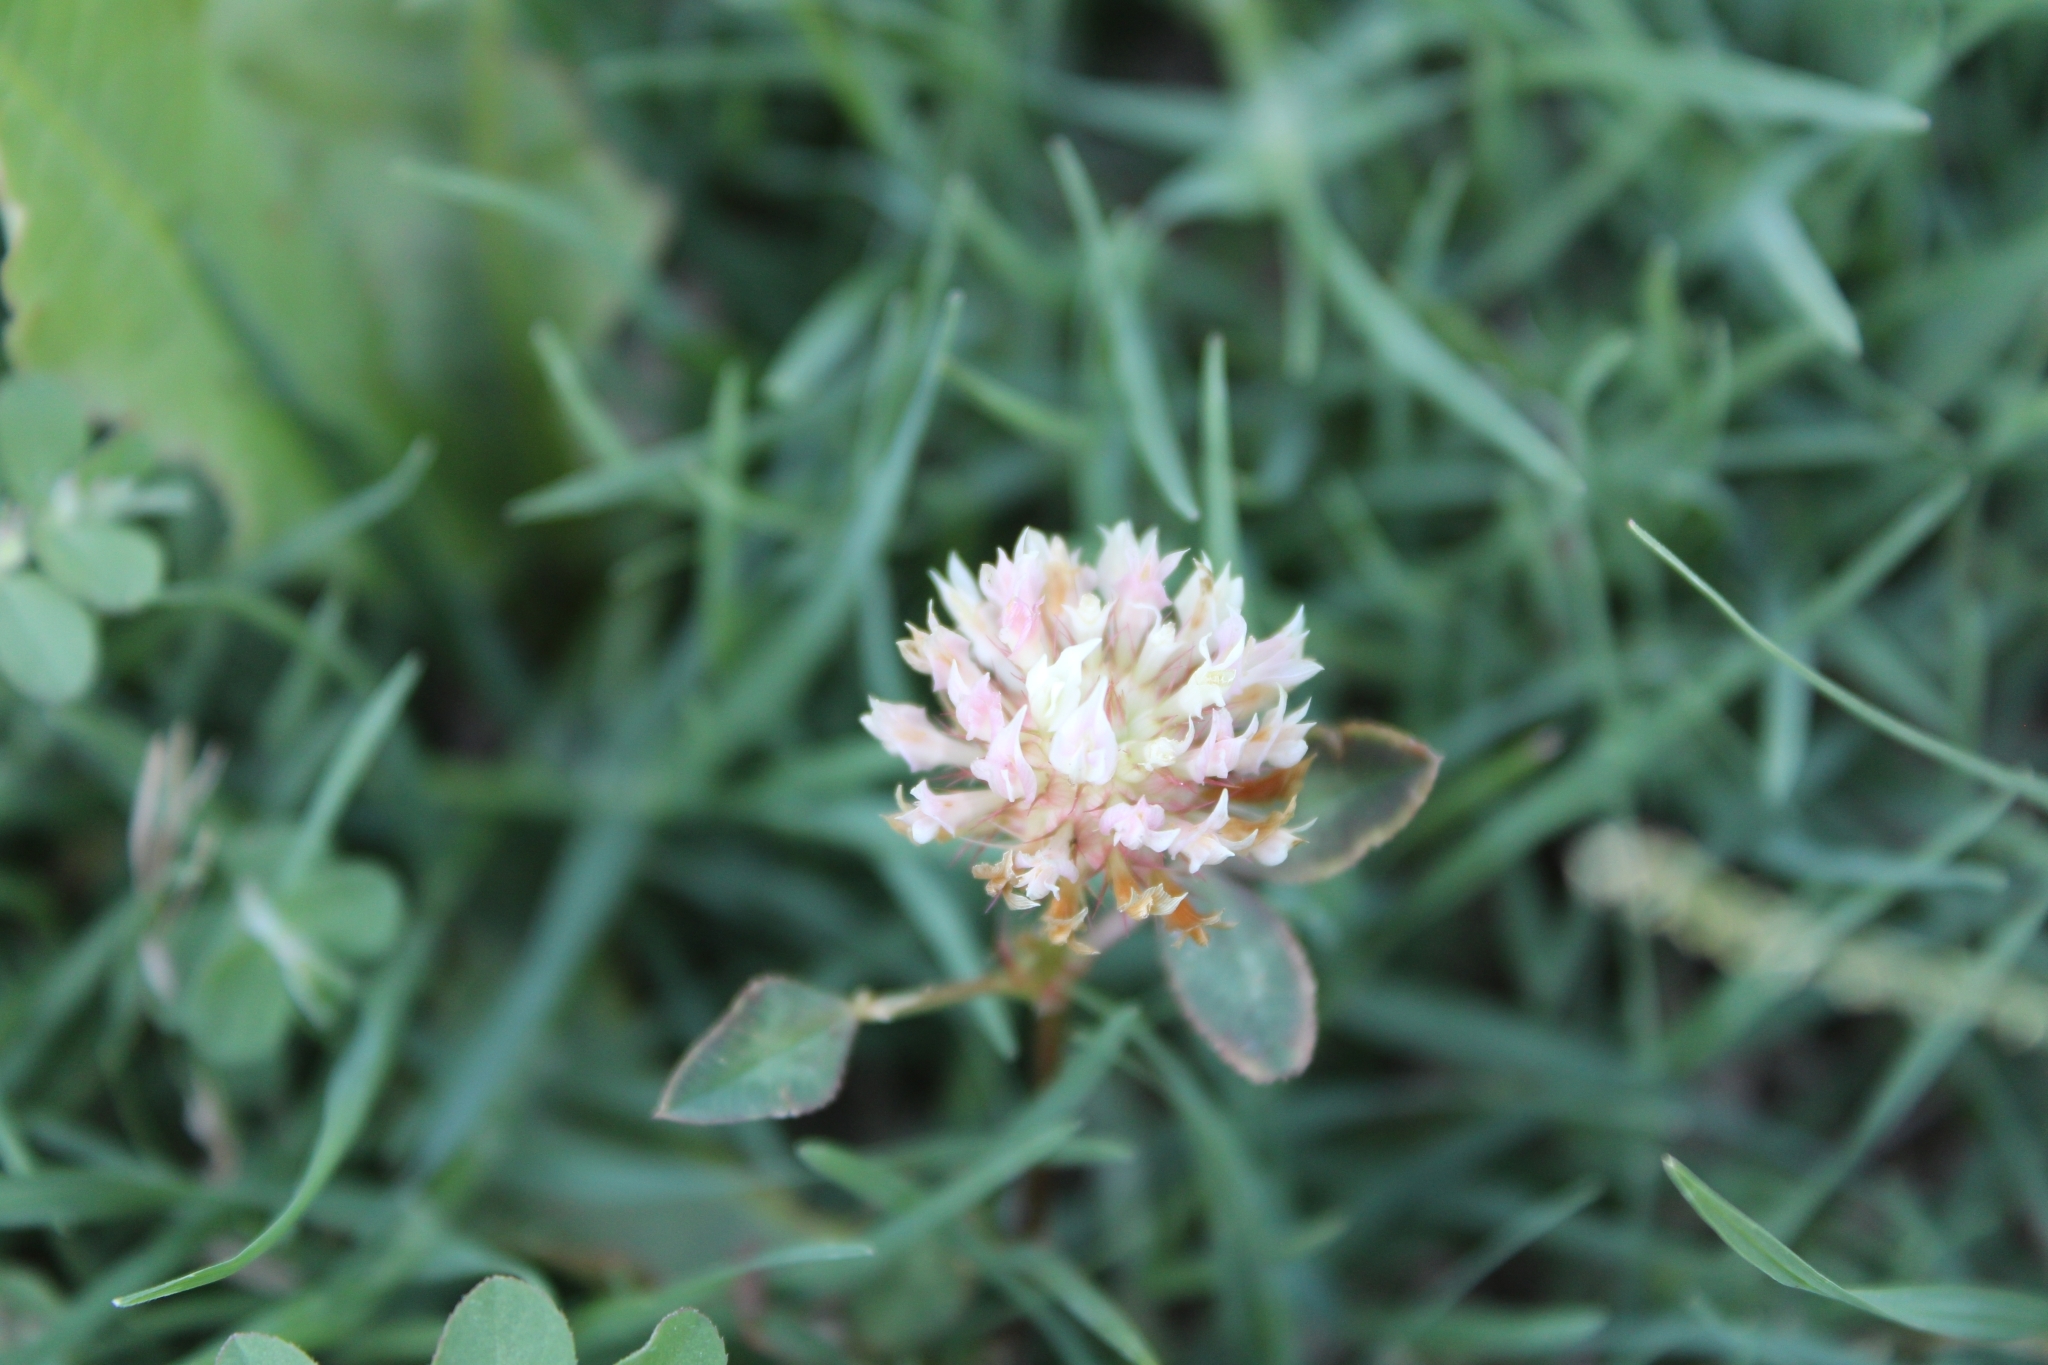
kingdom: Plantae
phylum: Tracheophyta
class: Magnoliopsida
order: Fabales
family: Fabaceae
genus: Trifolium
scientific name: Trifolium vesiculosum
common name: Arrowleaf clover
